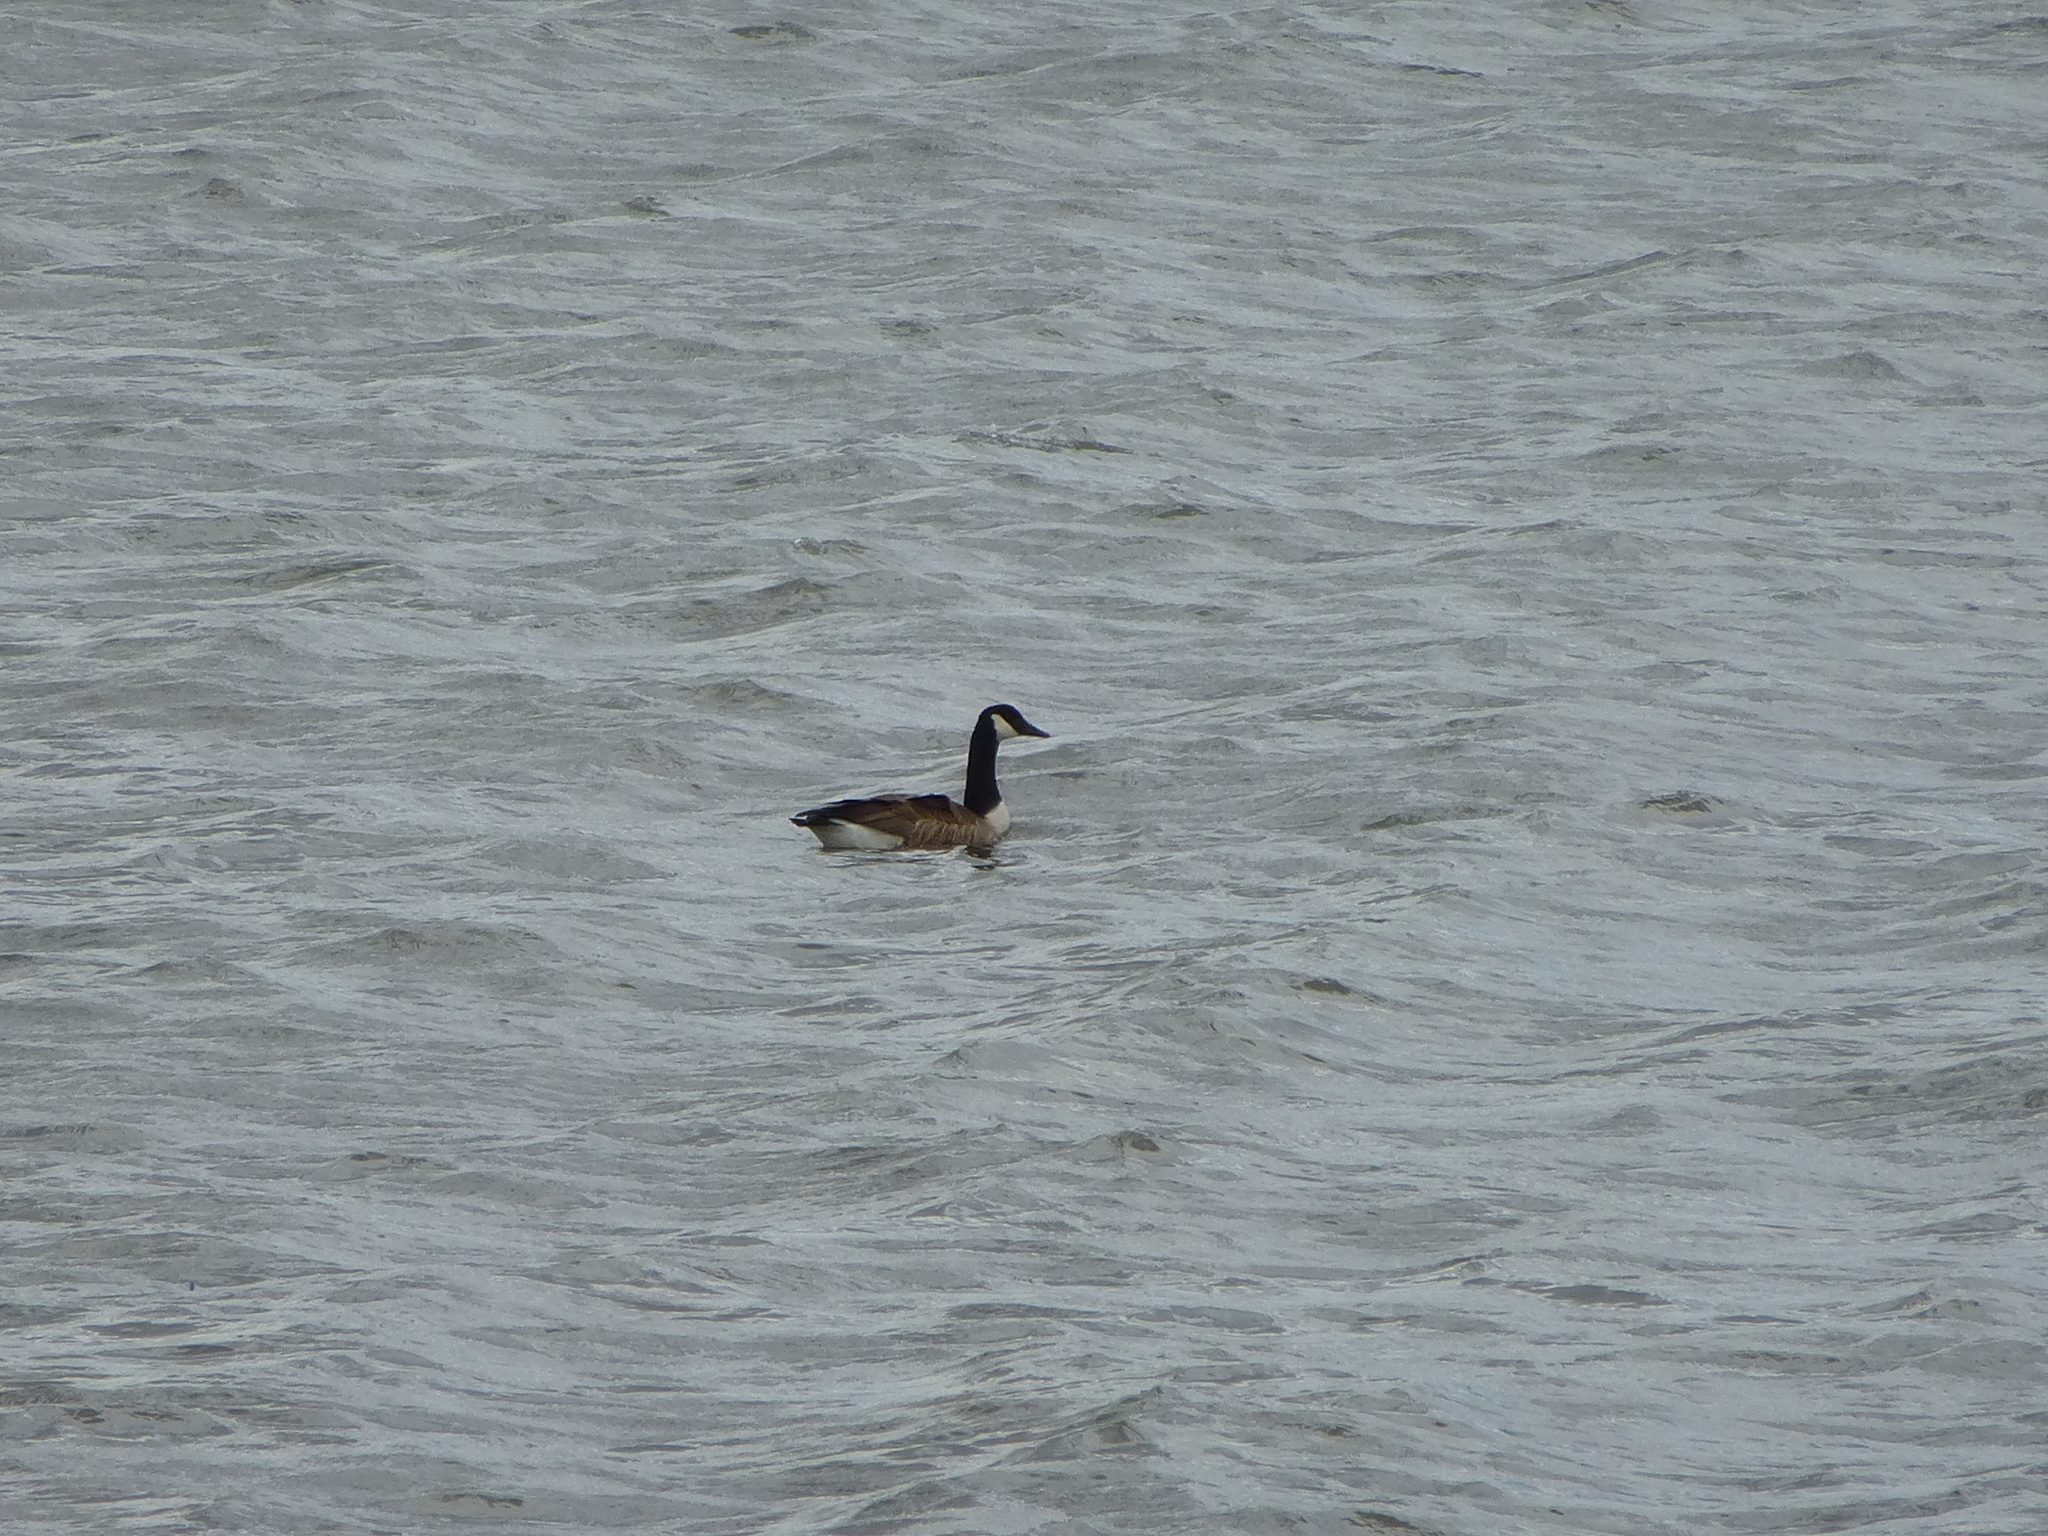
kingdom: Animalia
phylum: Chordata
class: Aves
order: Anseriformes
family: Anatidae
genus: Branta
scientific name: Branta canadensis
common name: Canada goose
